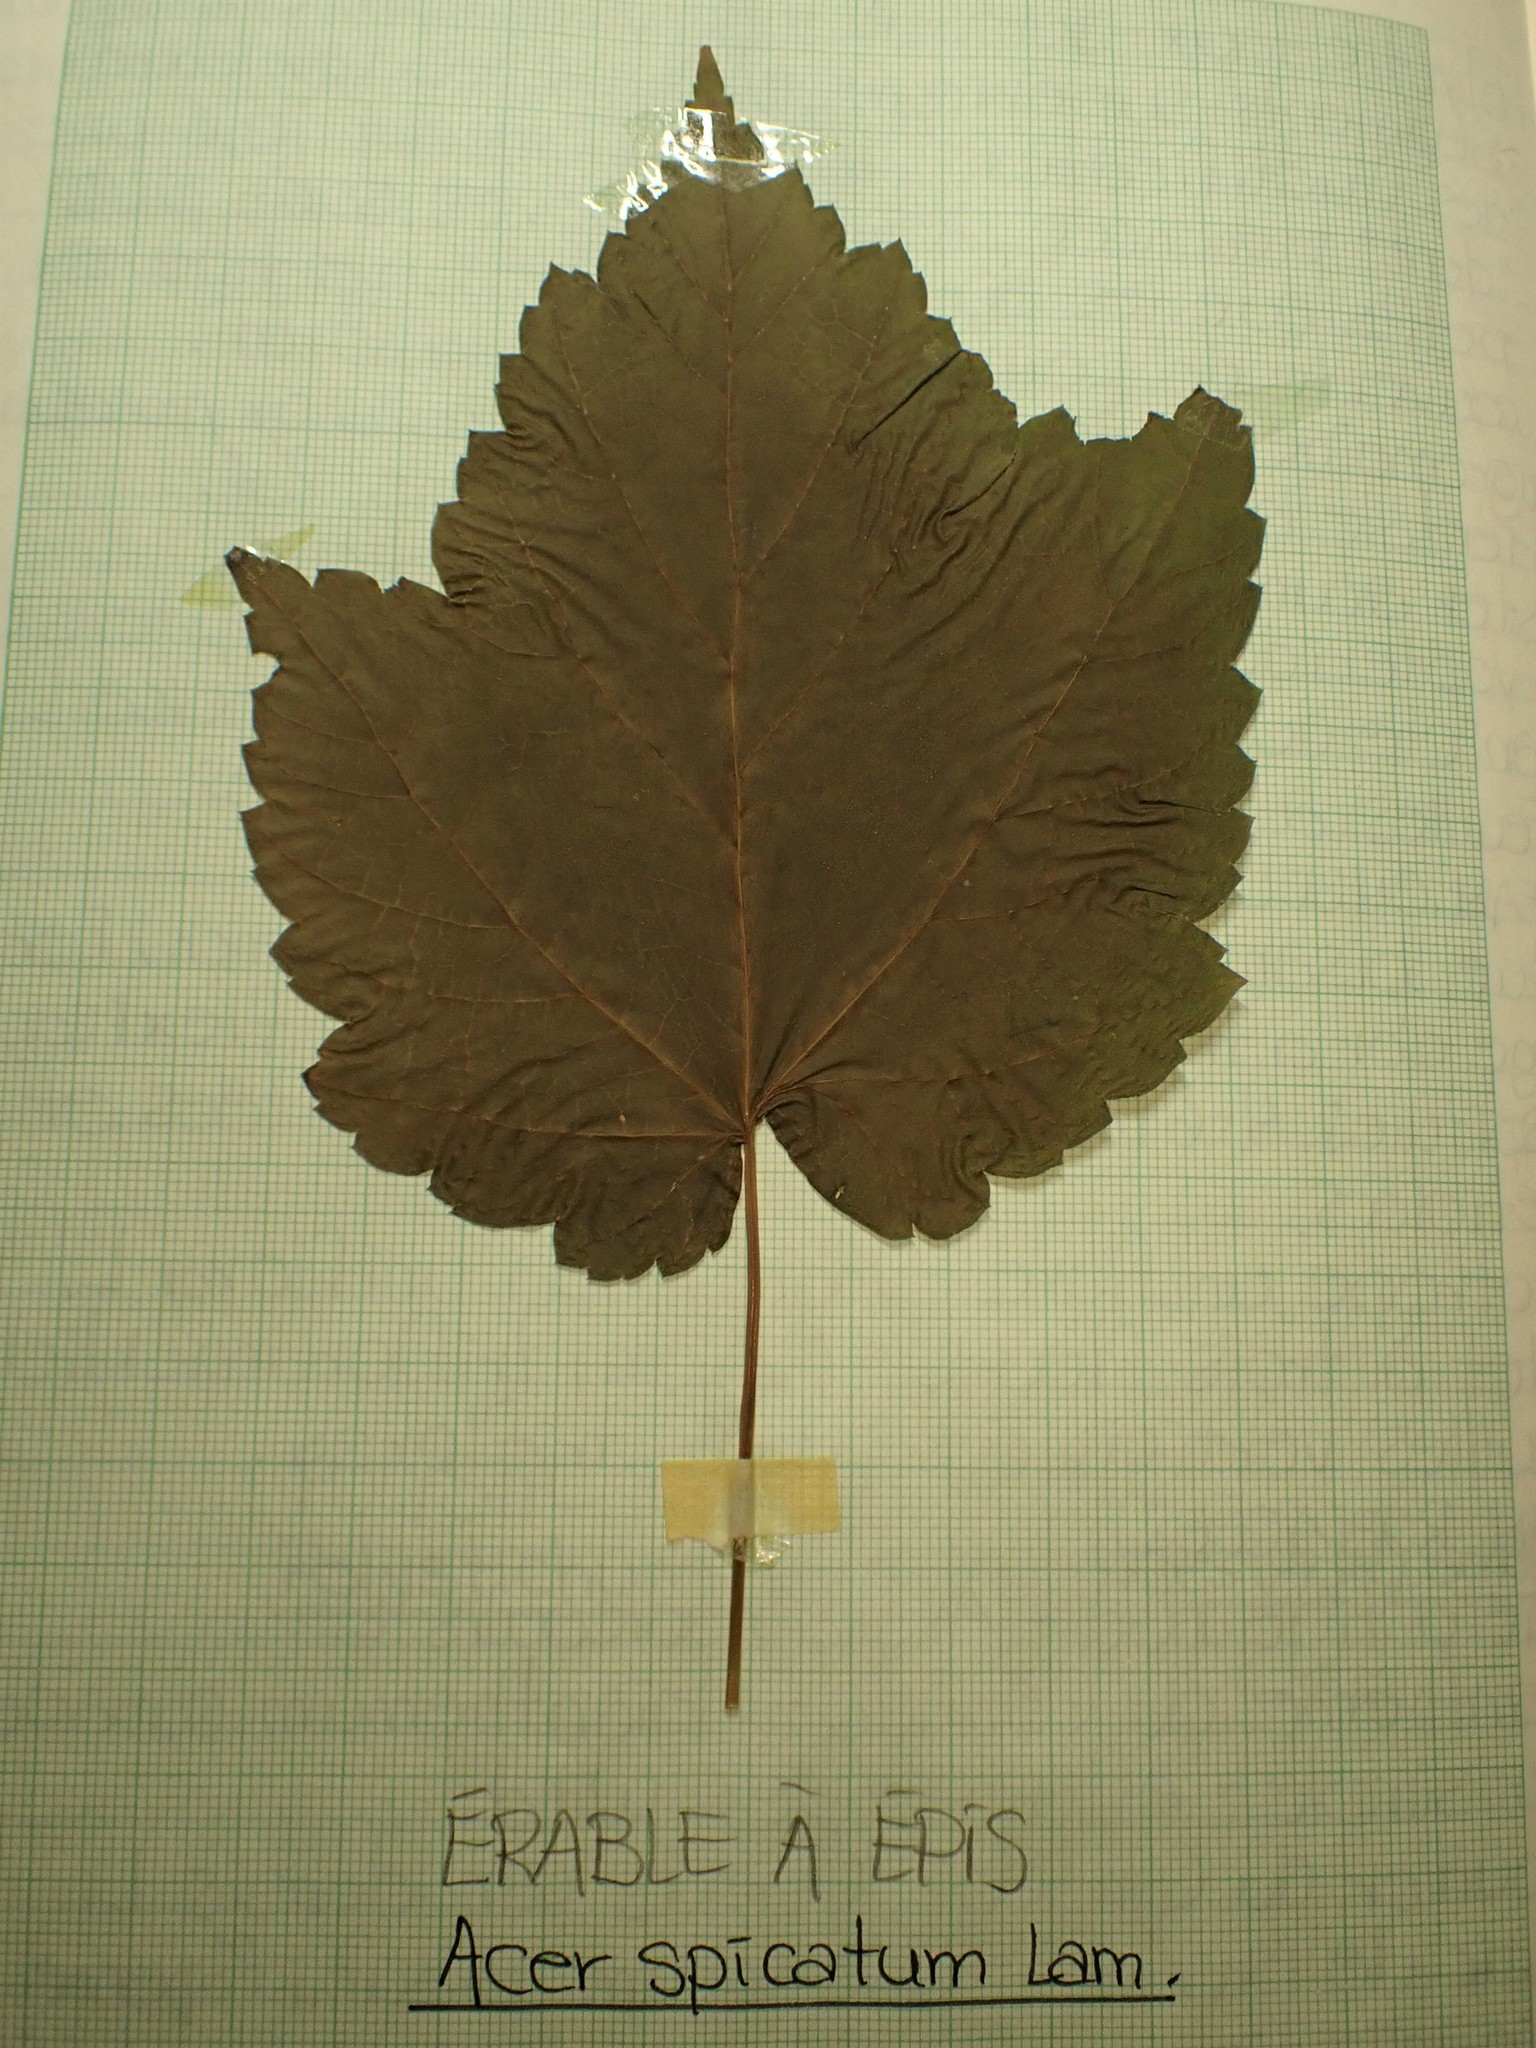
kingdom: Plantae
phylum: Tracheophyta
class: Magnoliopsida
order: Sapindales
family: Sapindaceae
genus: Acer
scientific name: Acer spicatum
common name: Mountain maple
